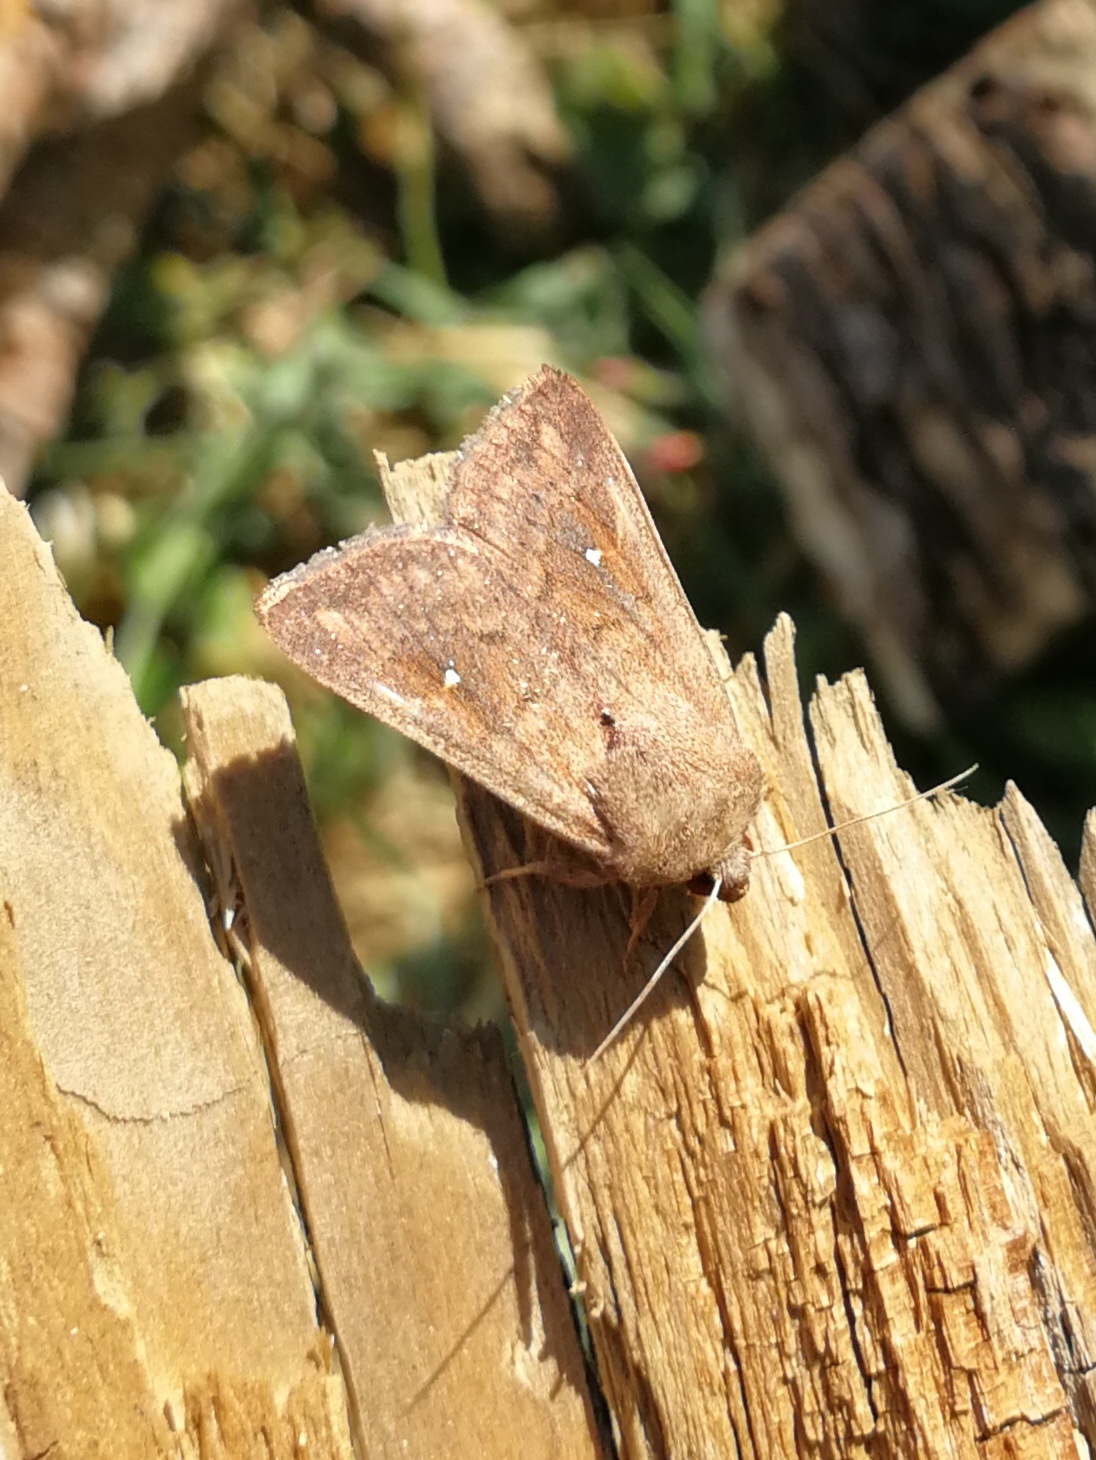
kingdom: Animalia
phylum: Arthropoda
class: Insecta
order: Lepidoptera
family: Noctuidae
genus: Mythimna
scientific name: Mythimna albipuncta
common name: White-point
